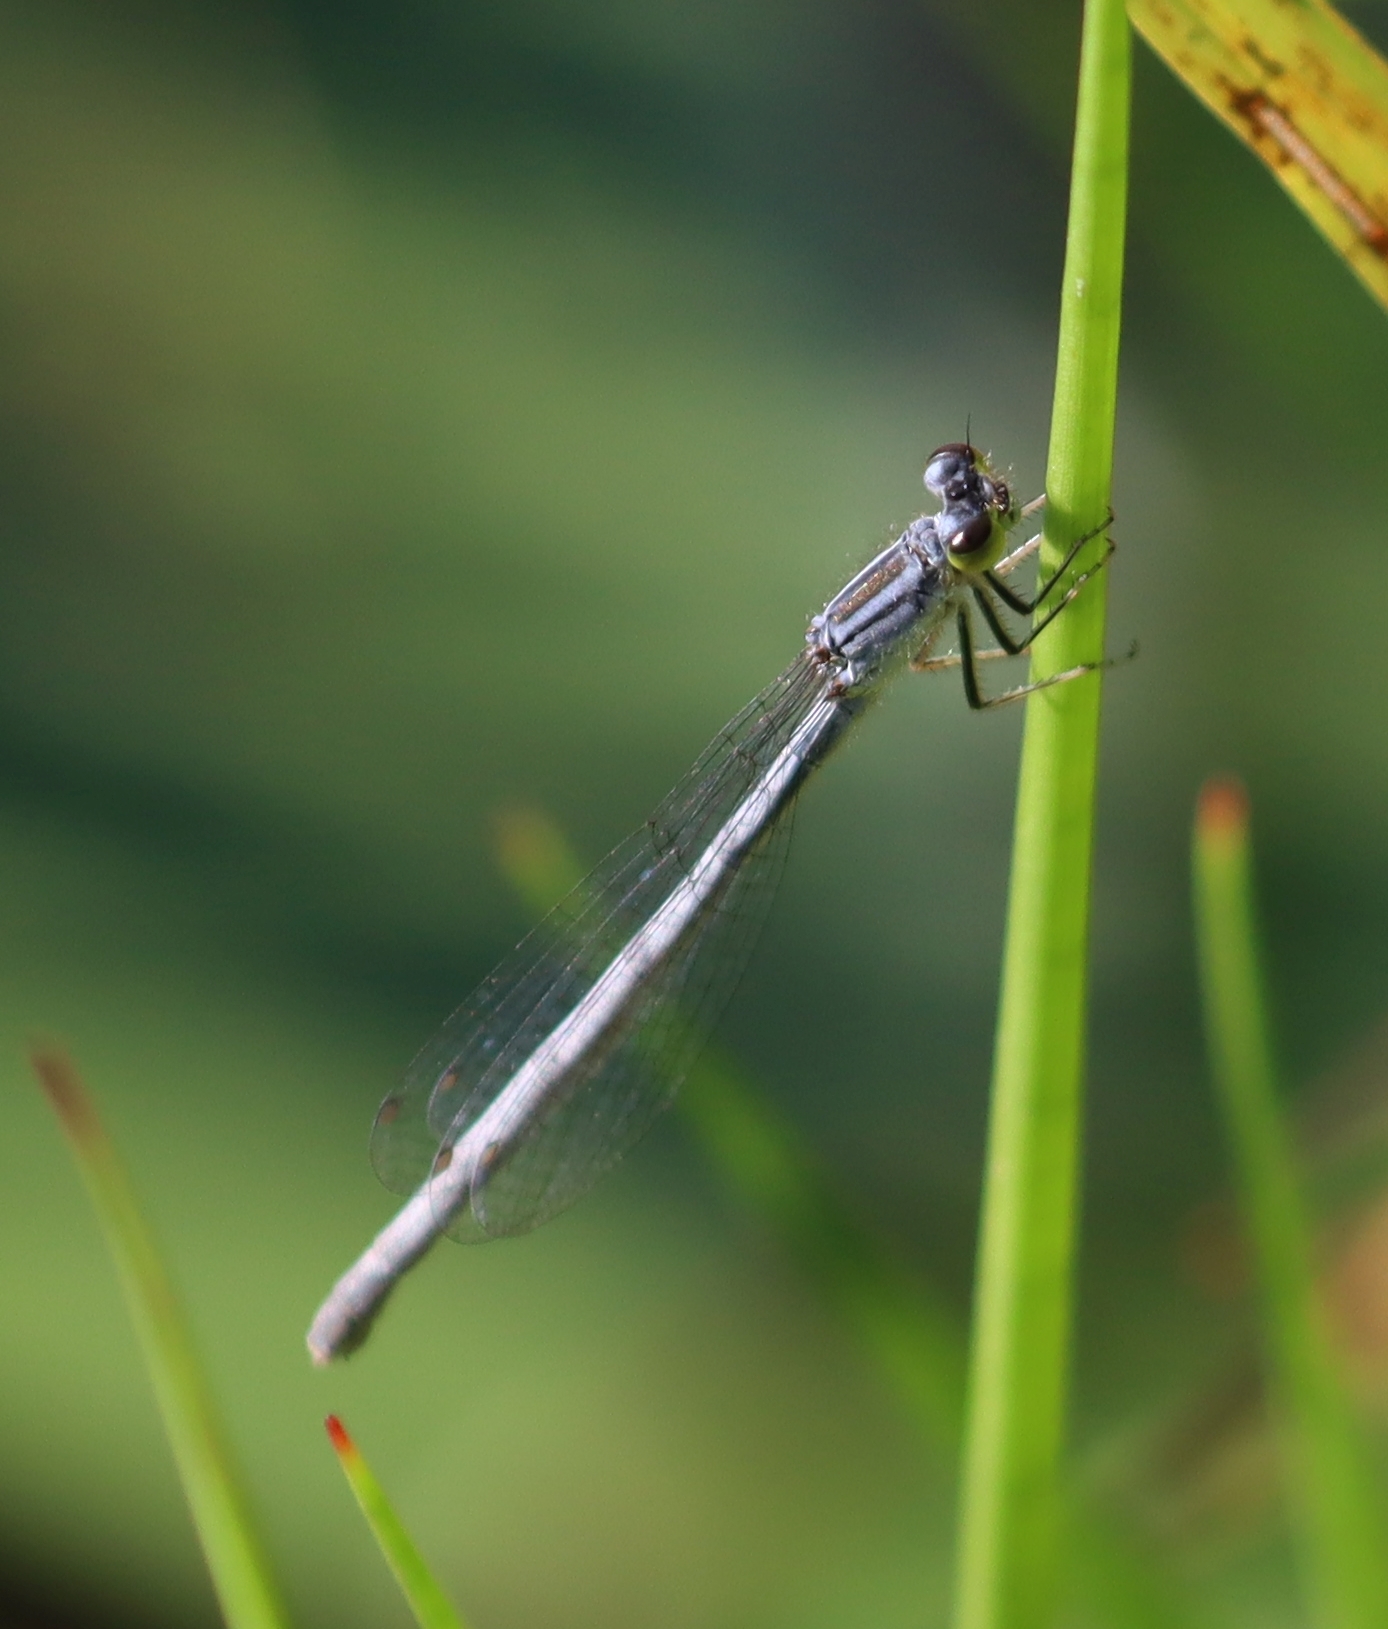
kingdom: Animalia
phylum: Arthropoda
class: Insecta
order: Odonata
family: Coenagrionidae
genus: Ischnura
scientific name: Ischnura verticalis
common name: Eastern forktail
